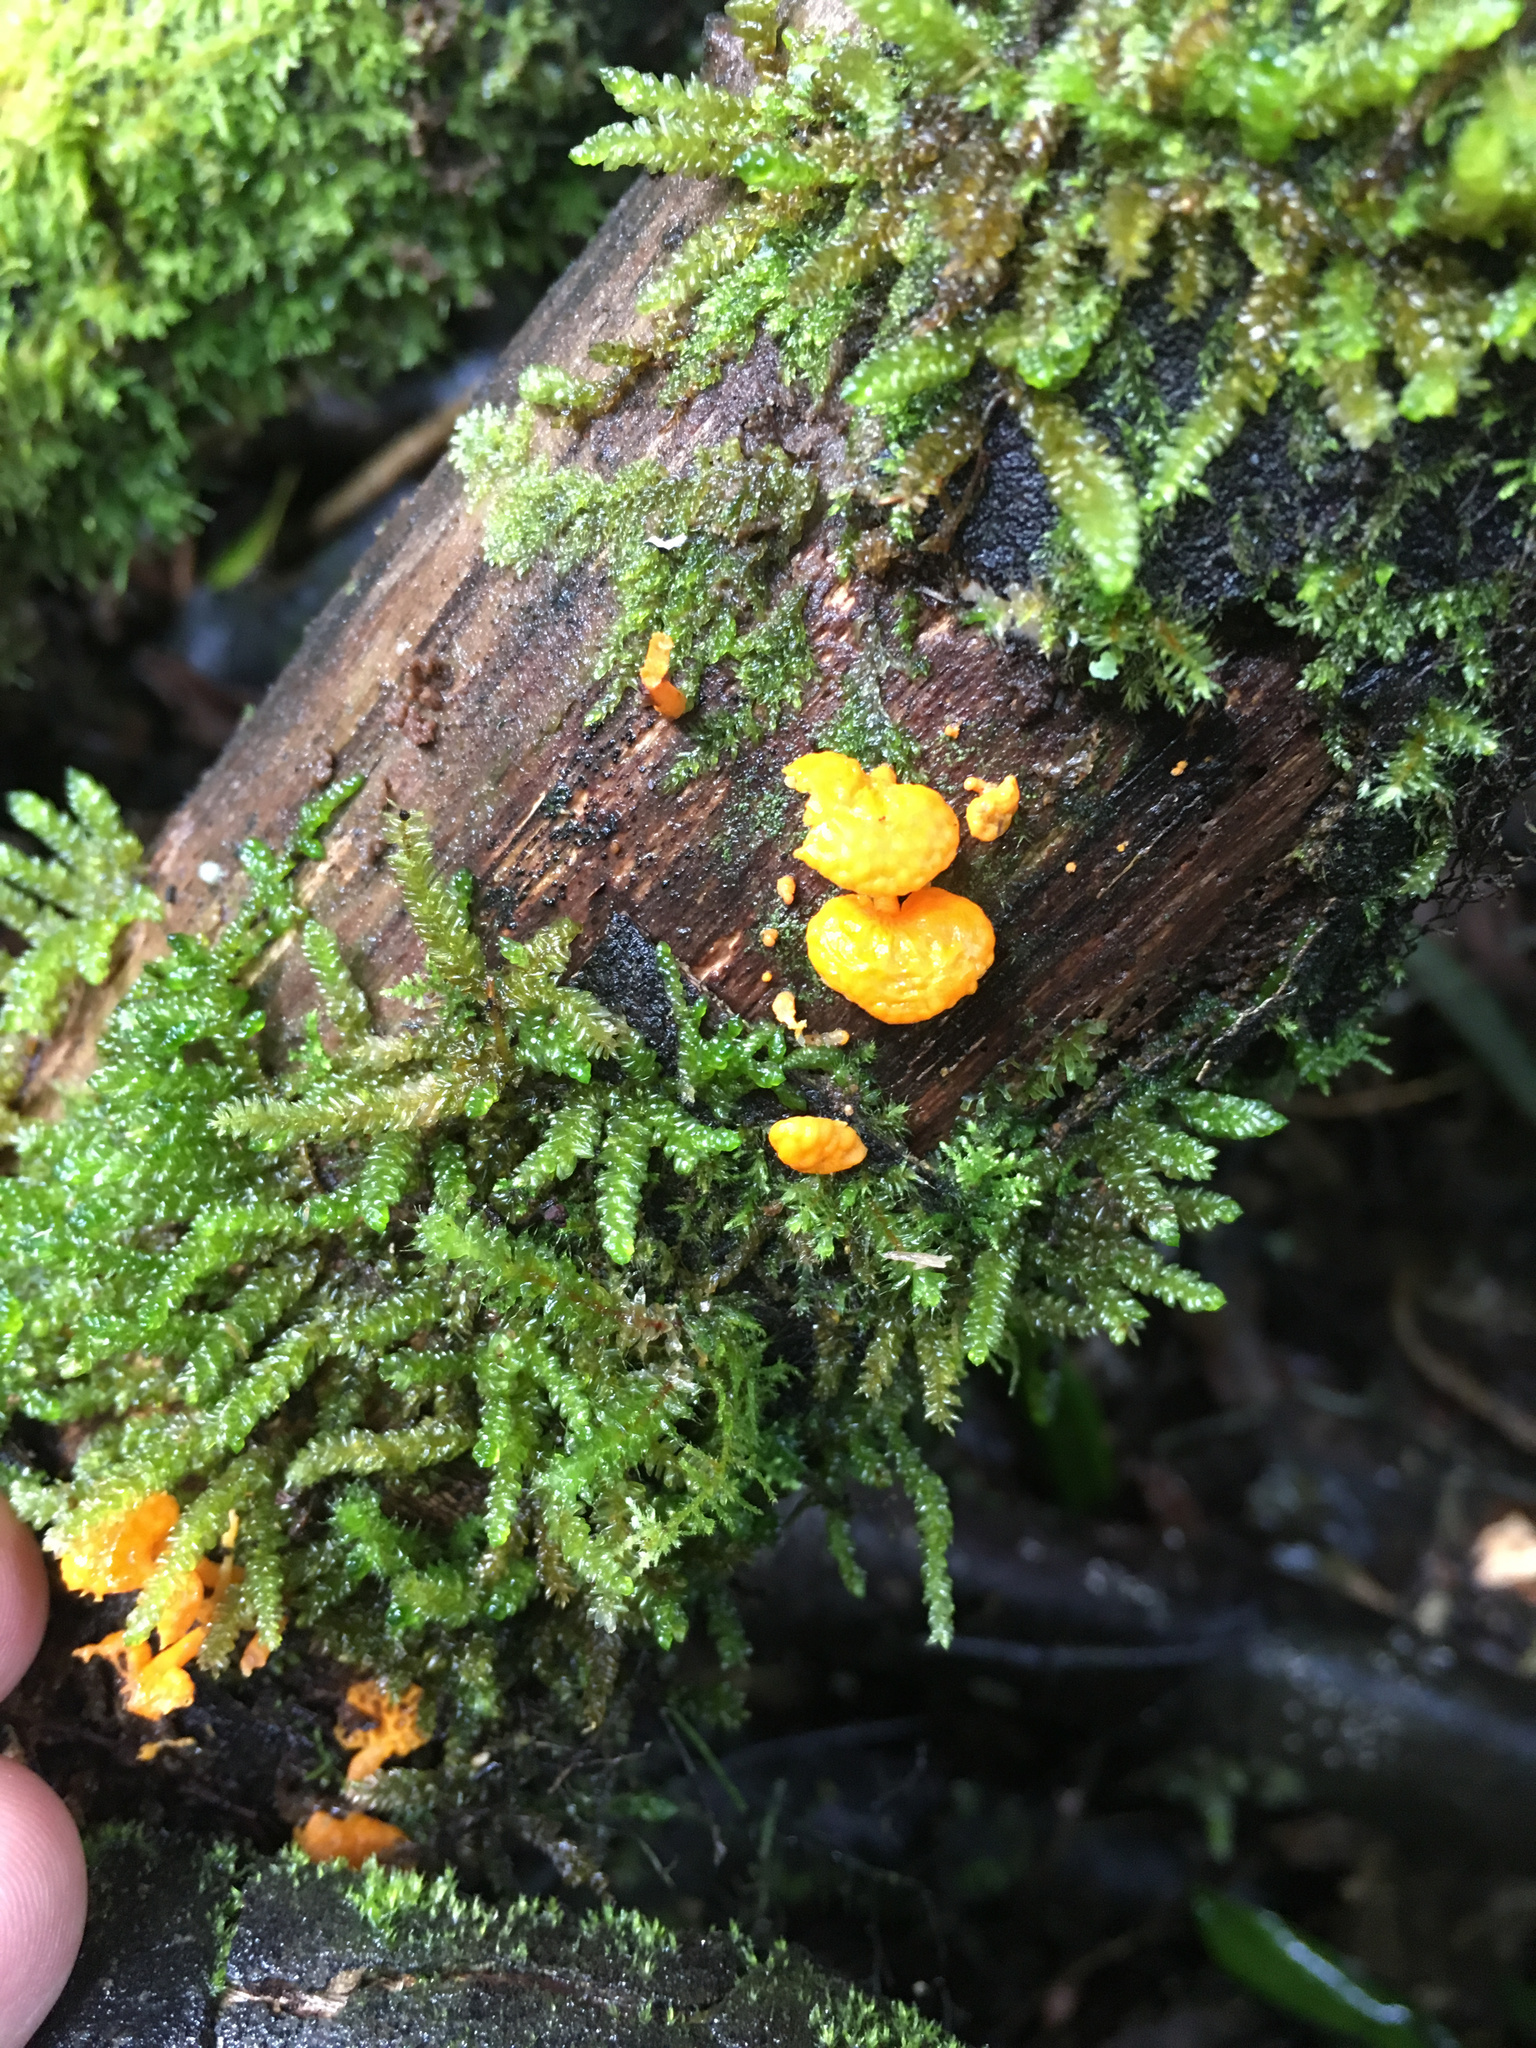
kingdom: Fungi
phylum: Basidiomycota
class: Agaricomycetes
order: Agaricales
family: Mycenaceae
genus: Favolaschia
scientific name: Favolaschia claudopus
